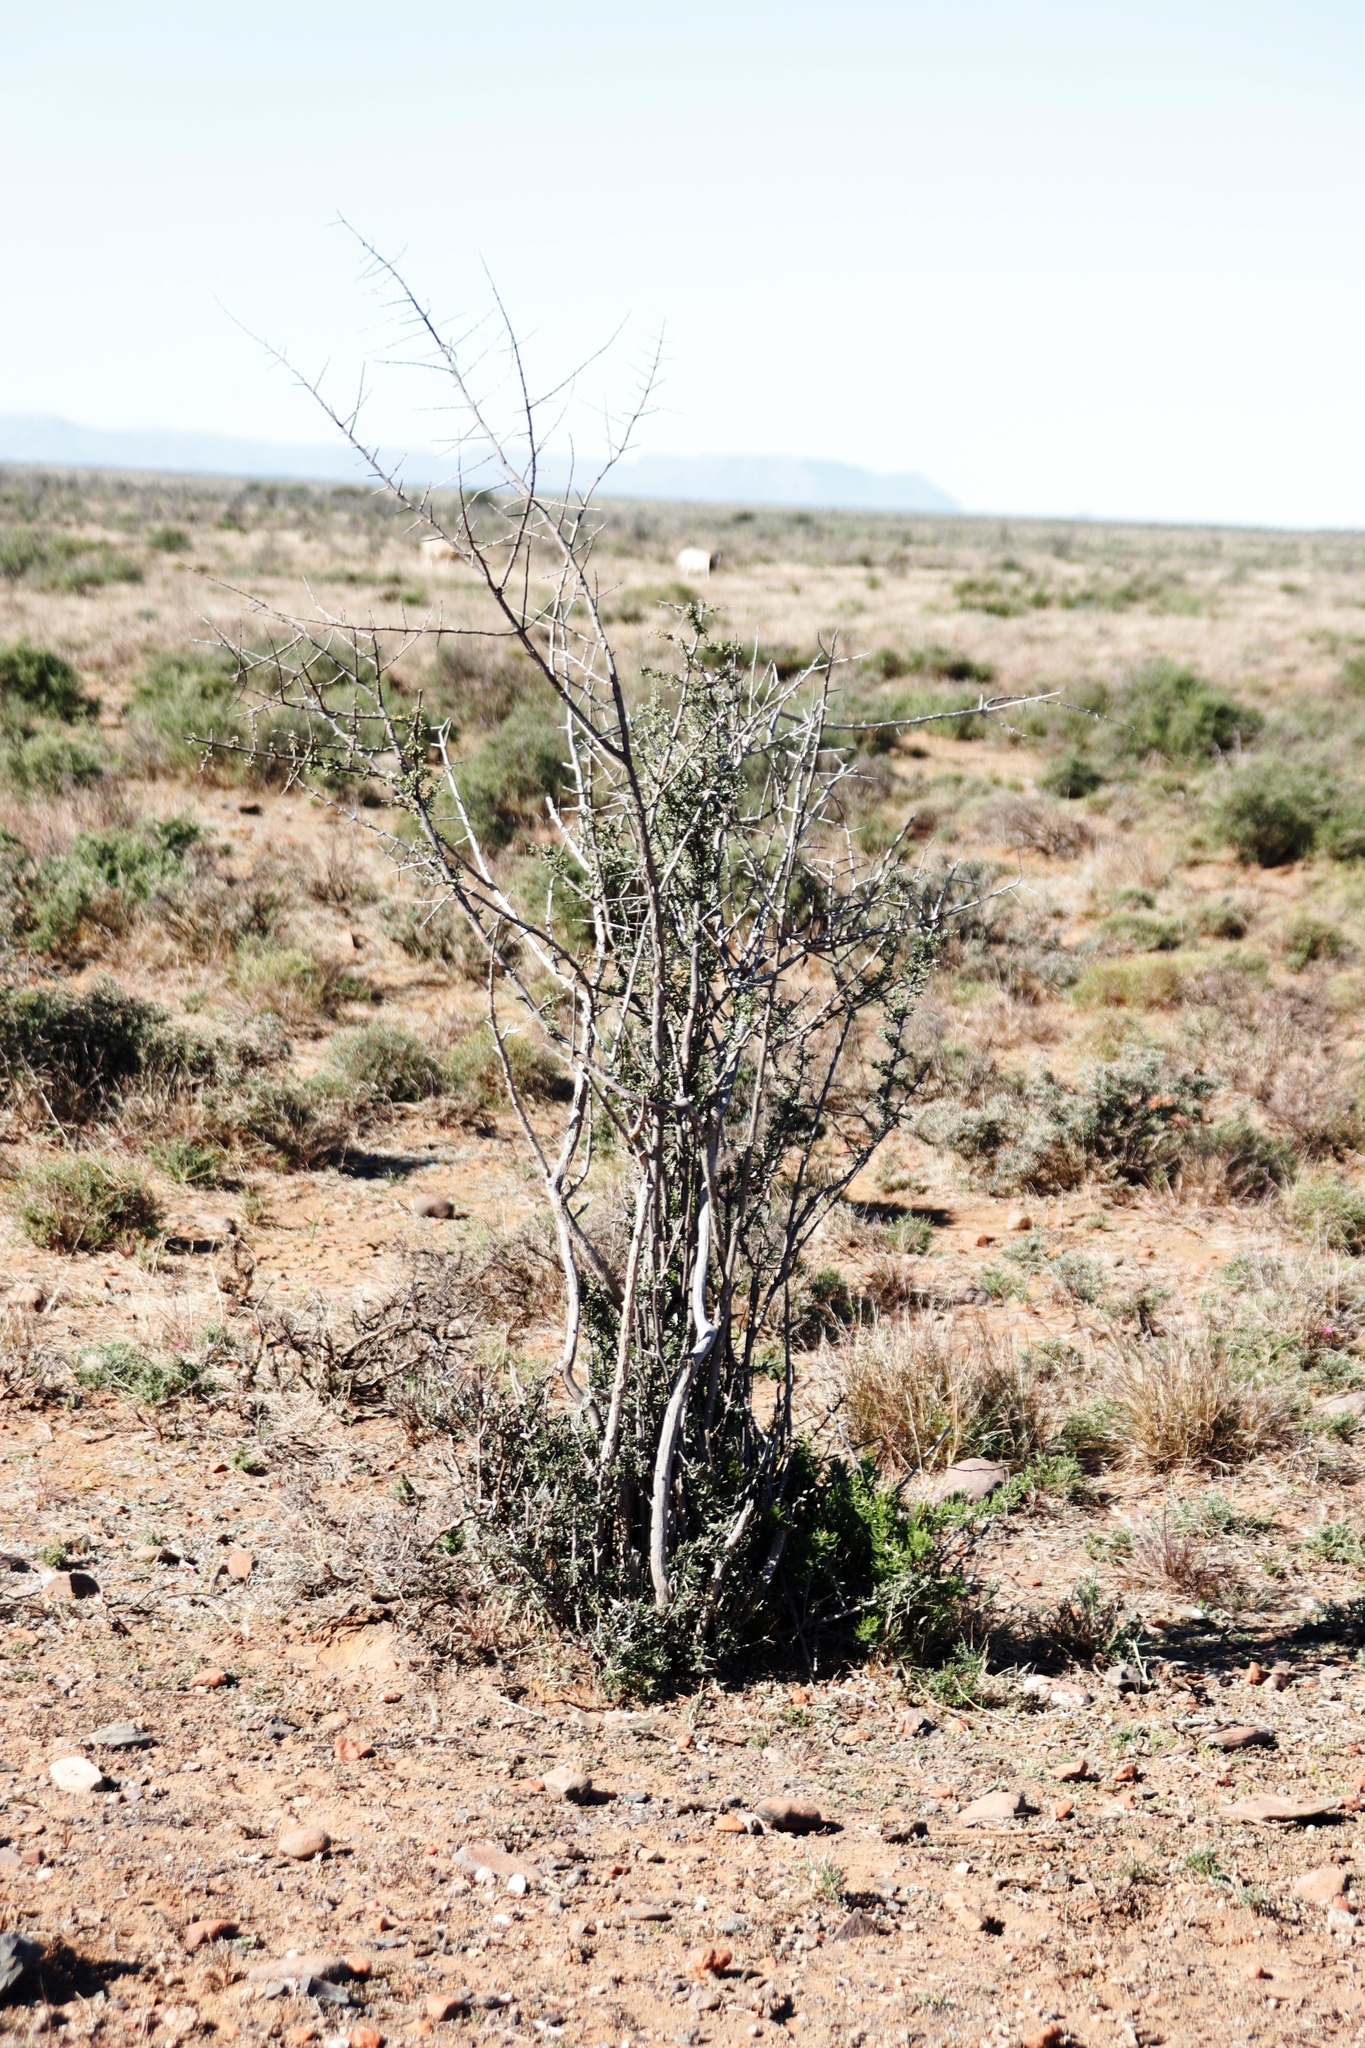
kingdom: Plantae
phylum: Tracheophyta
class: Magnoliopsida
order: Lamiales
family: Bignoniaceae
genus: Rhigozum
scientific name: Rhigozum obovatum
